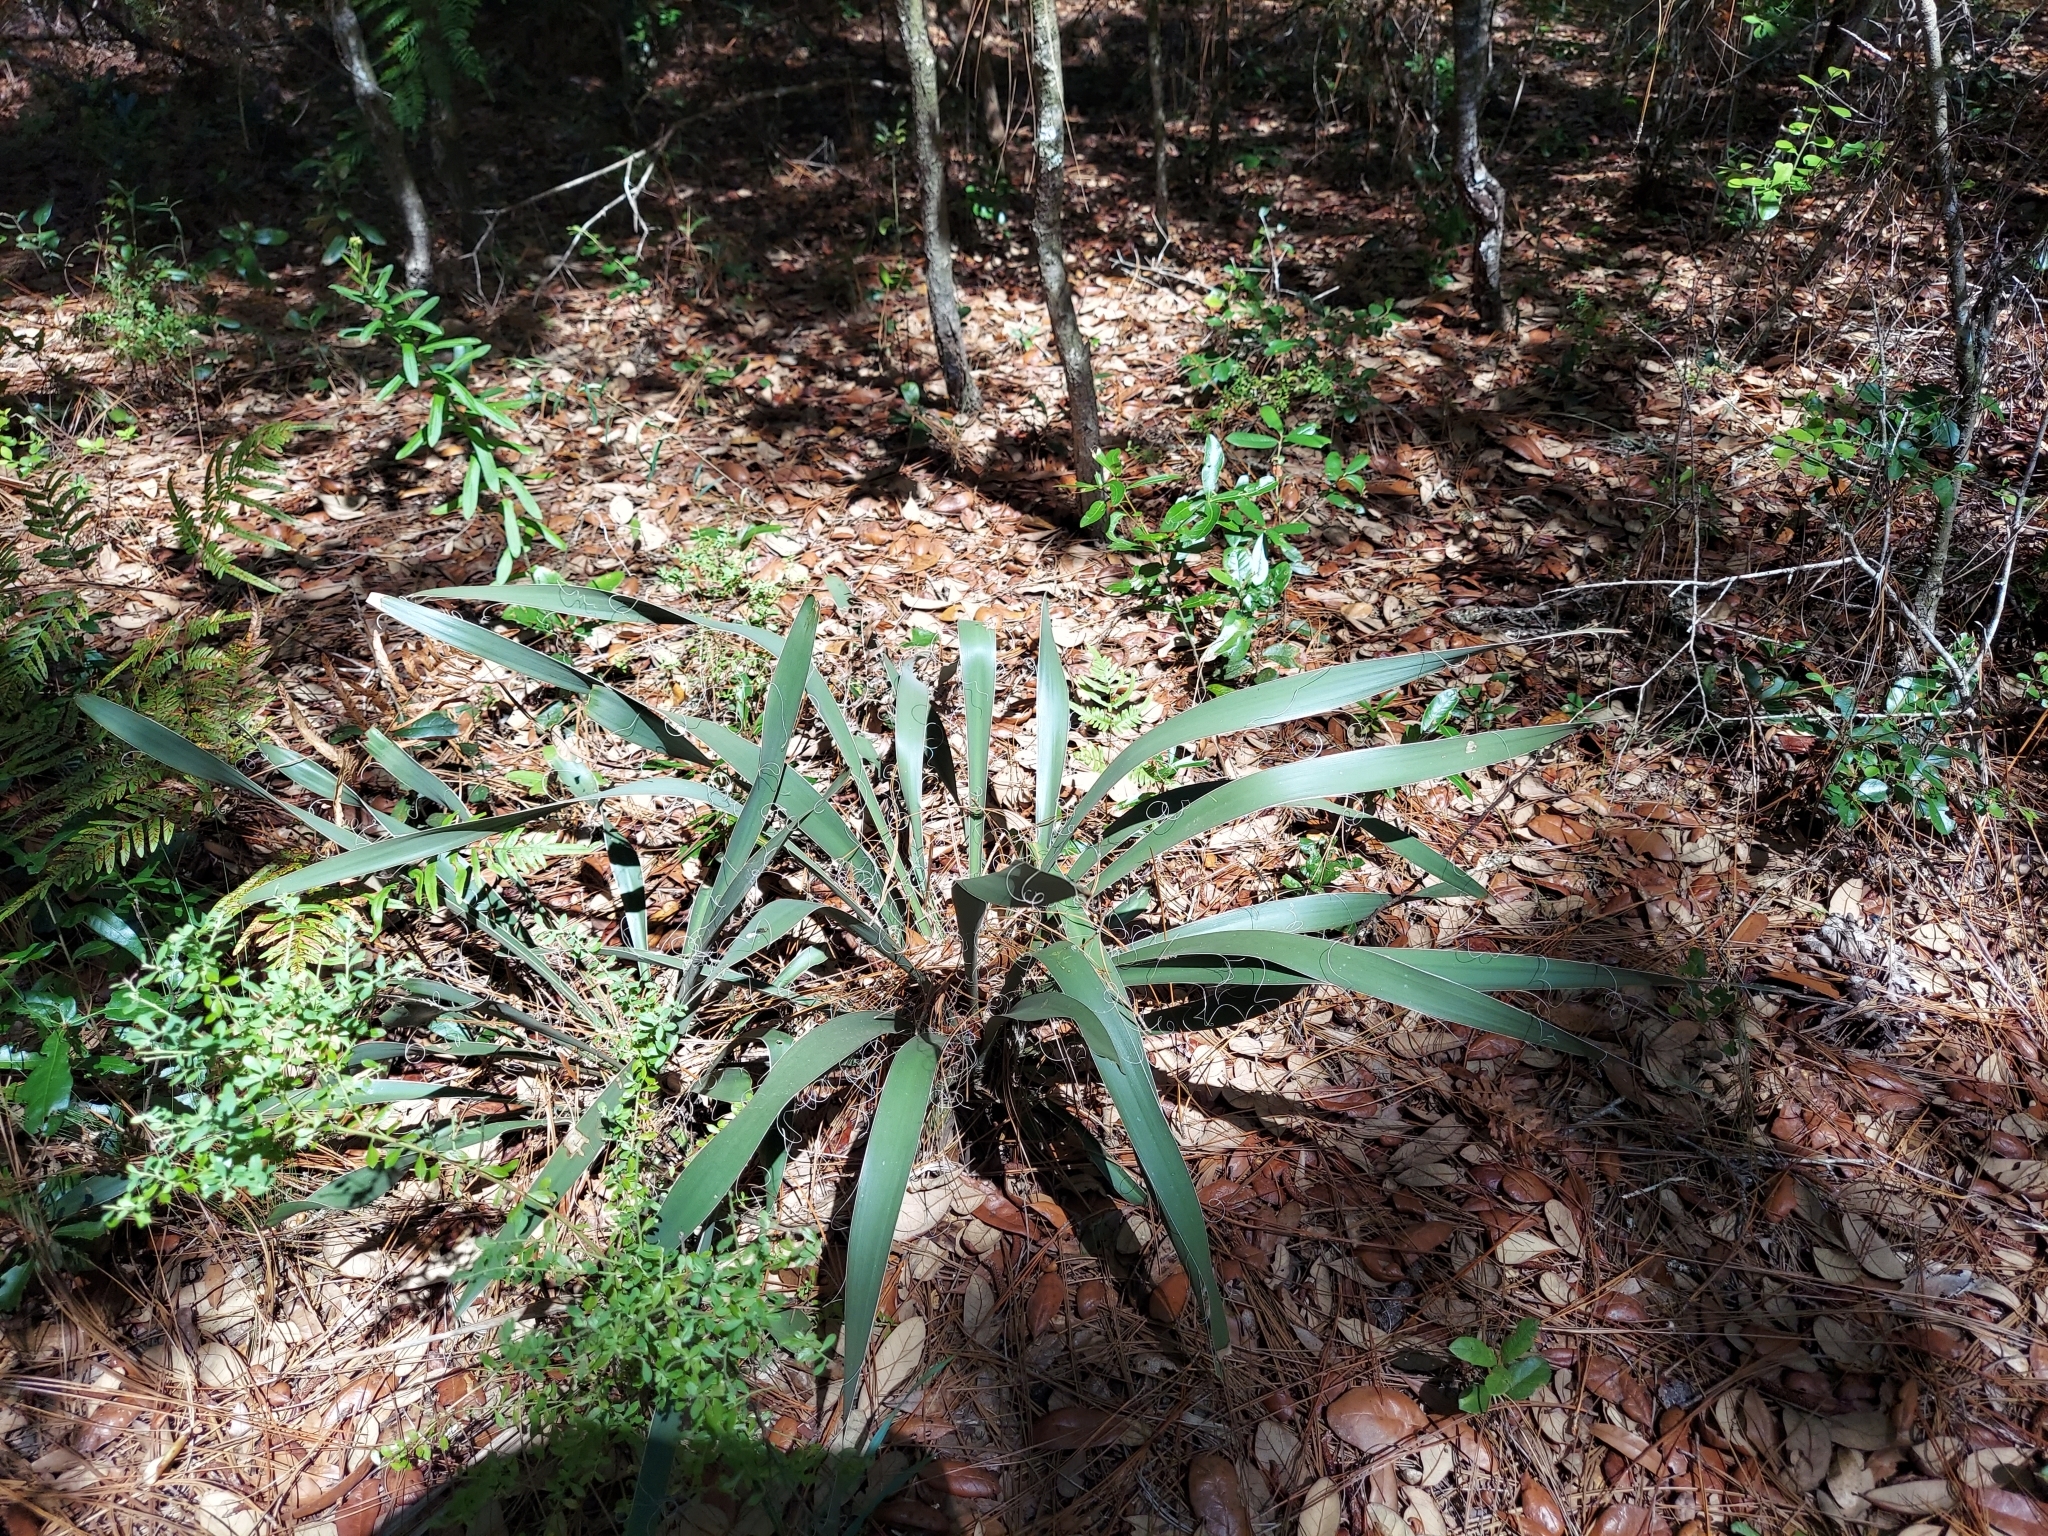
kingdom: Plantae
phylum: Tracheophyta
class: Liliopsida
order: Asparagales
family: Asparagaceae
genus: Yucca
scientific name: Yucca filamentosa
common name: Adam's-needle
